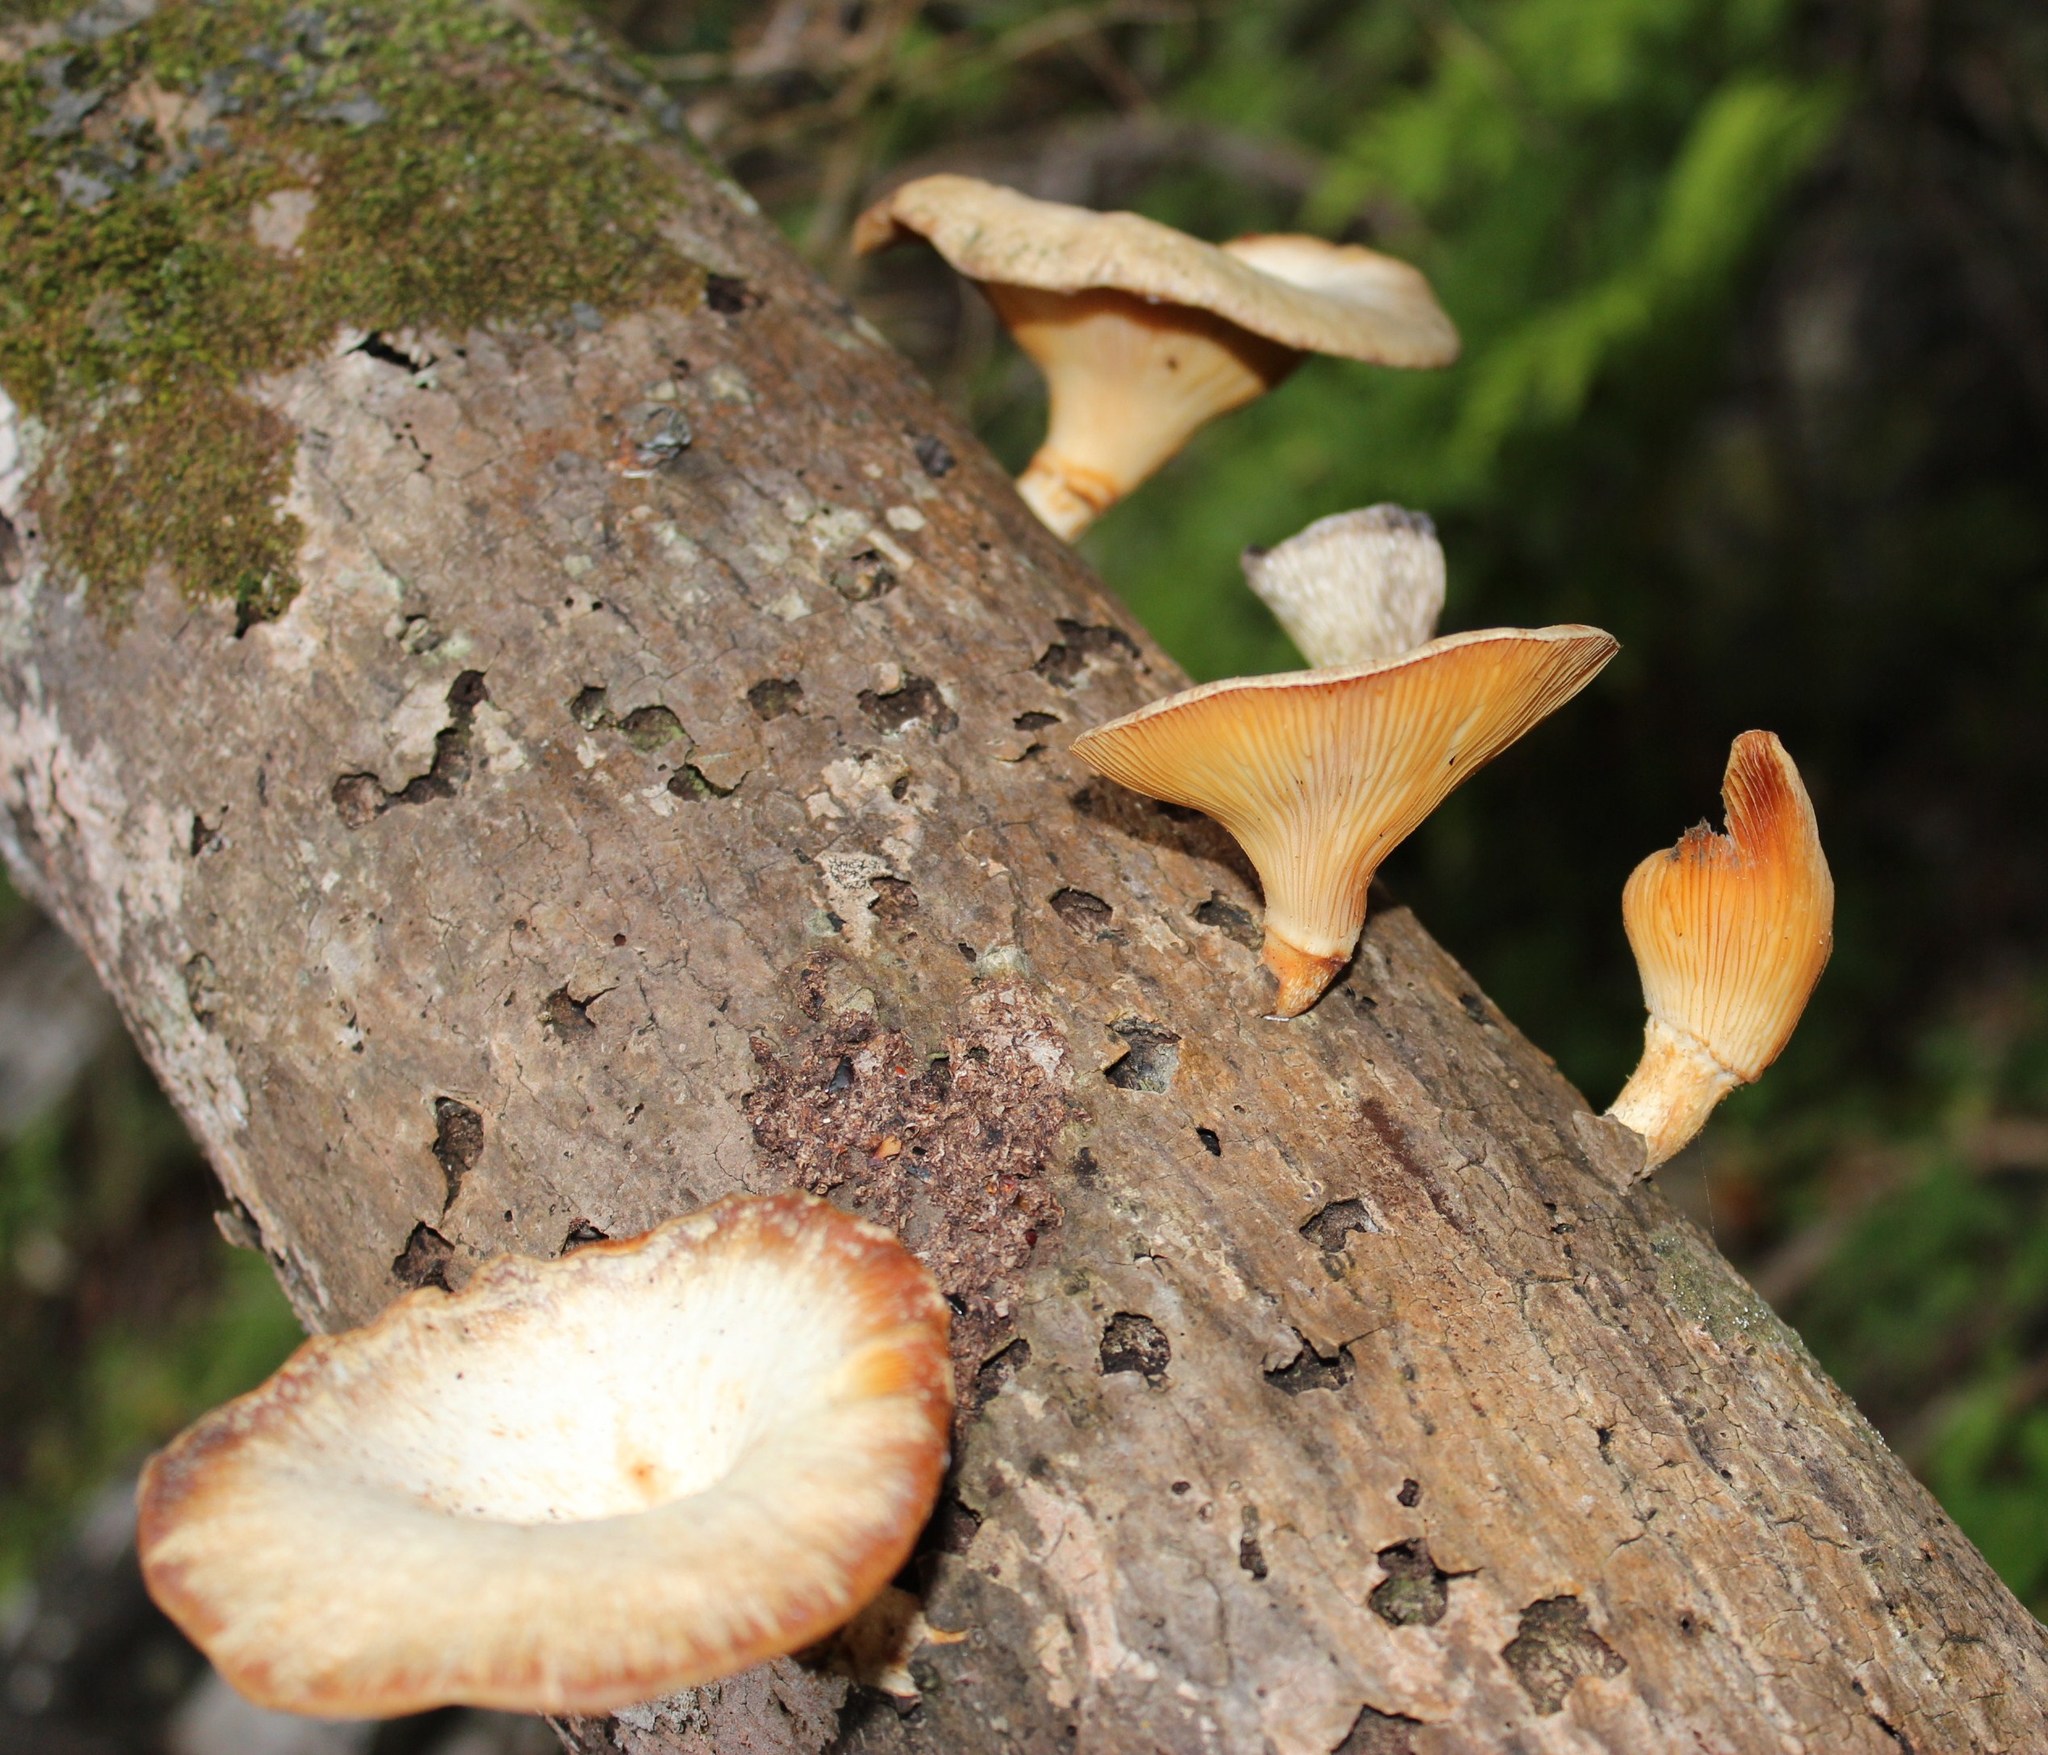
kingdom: Fungi
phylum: Basidiomycota
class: Agaricomycetes
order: Polyporales
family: Polyporaceae
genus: Lentinus
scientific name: Lentinus sajor-caju
